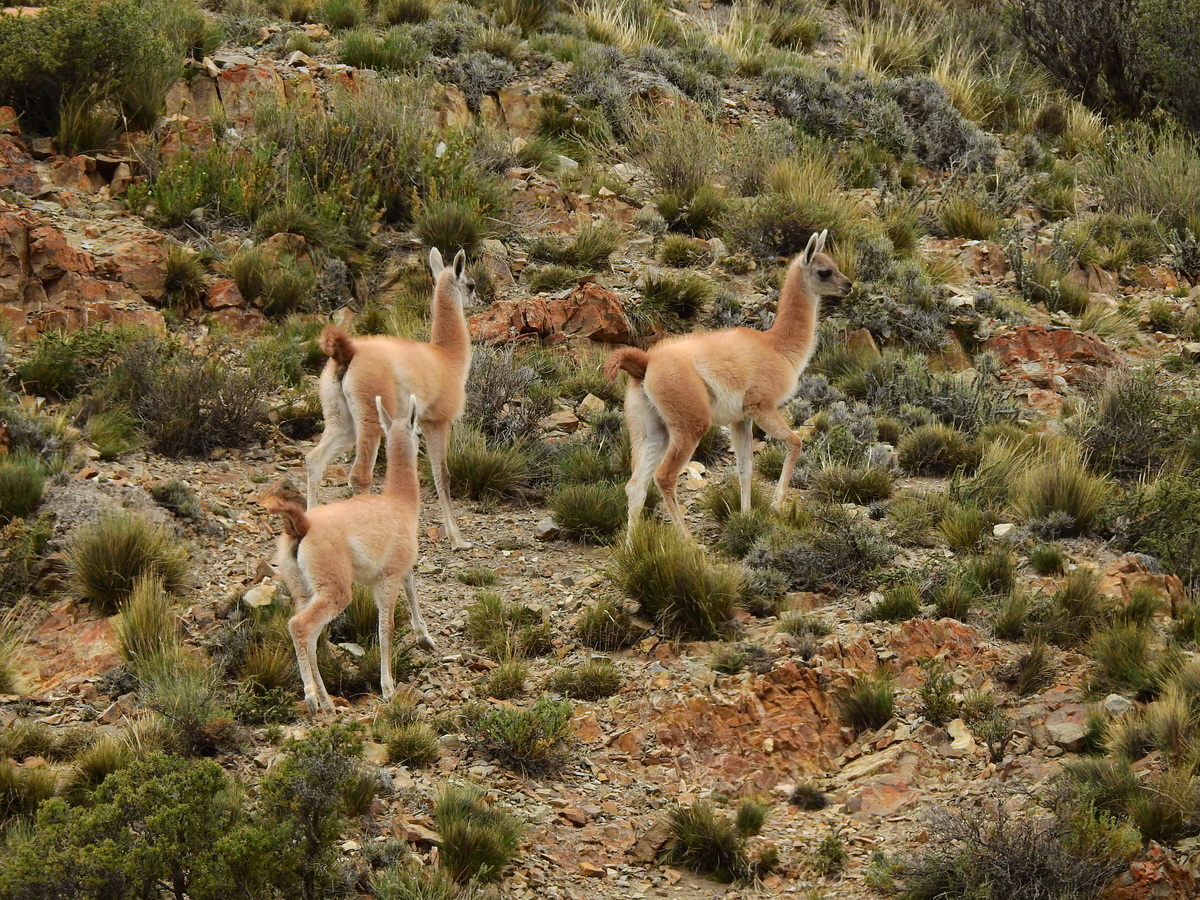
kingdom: Animalia
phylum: Chordata
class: Mammalia
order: Artiodactyla
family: Camelidae
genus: Lama
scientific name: Lama glama
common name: Llama
